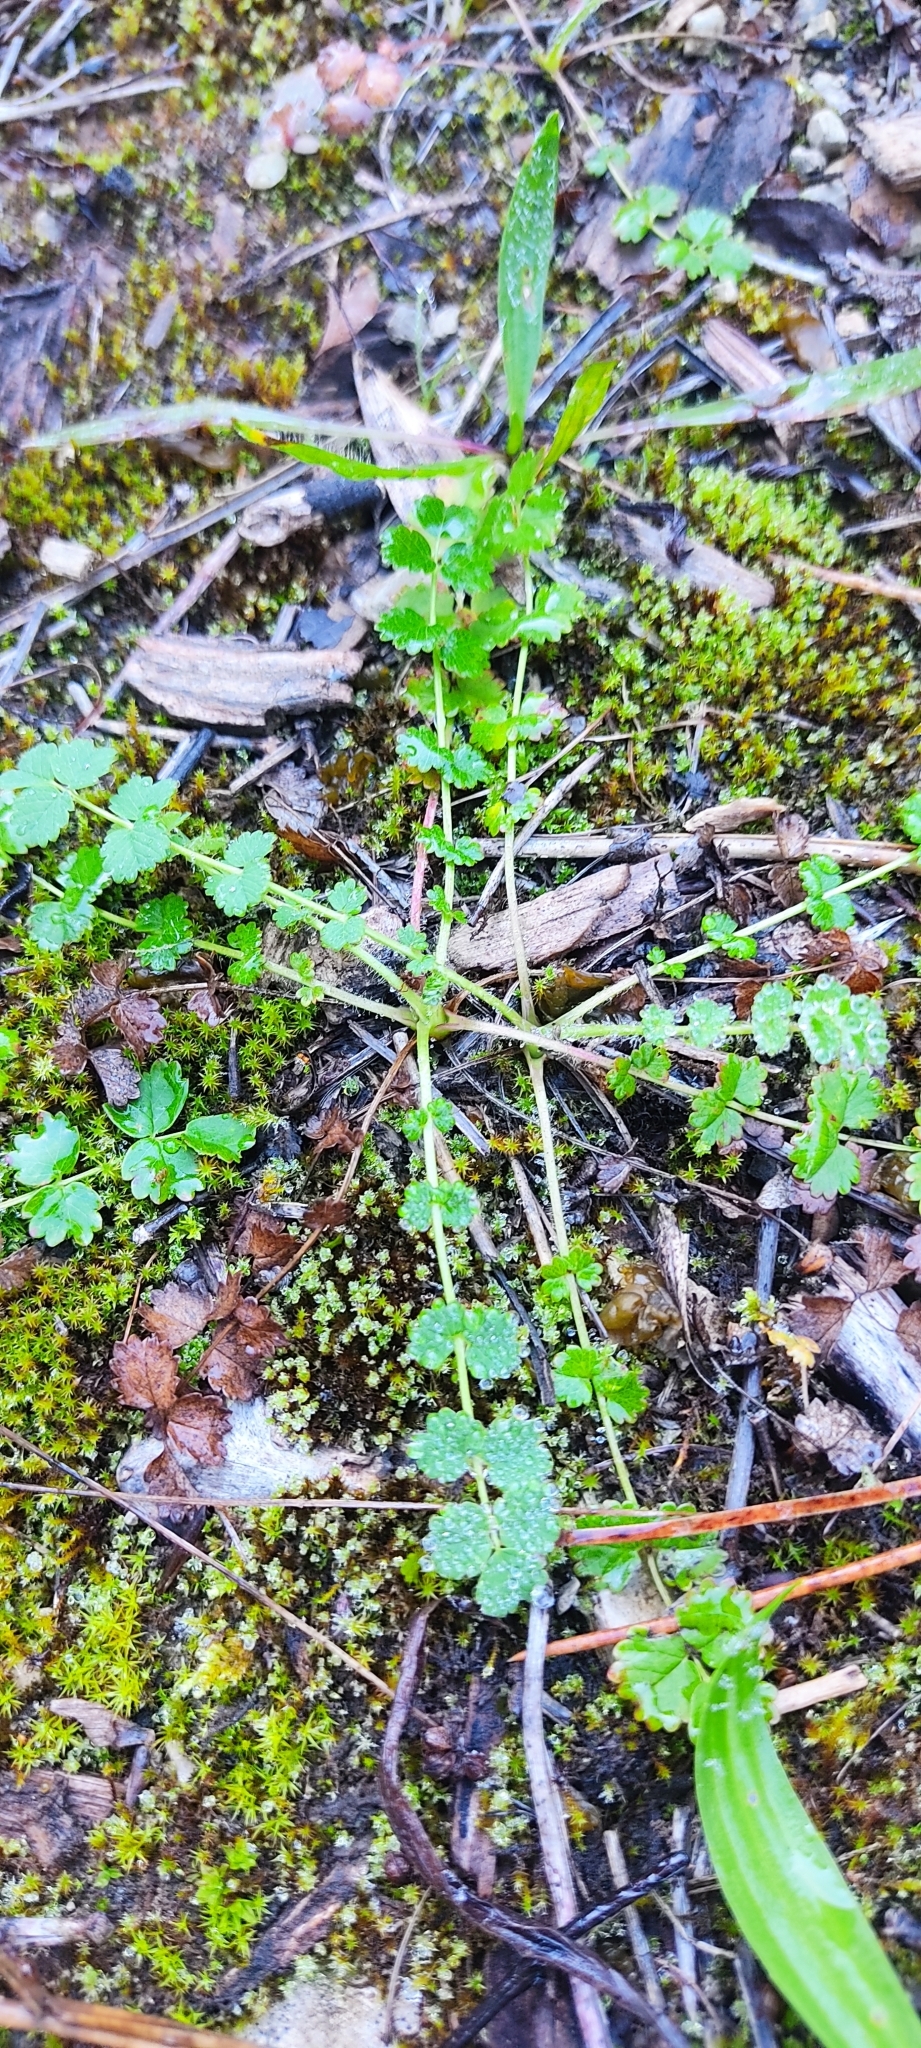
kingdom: Plantae
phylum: Tracheophyta
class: Magnoliopsida
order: Rosales
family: Rosaceae
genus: Poterium
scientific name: Poterium sanguisorba
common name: Salad burnet
